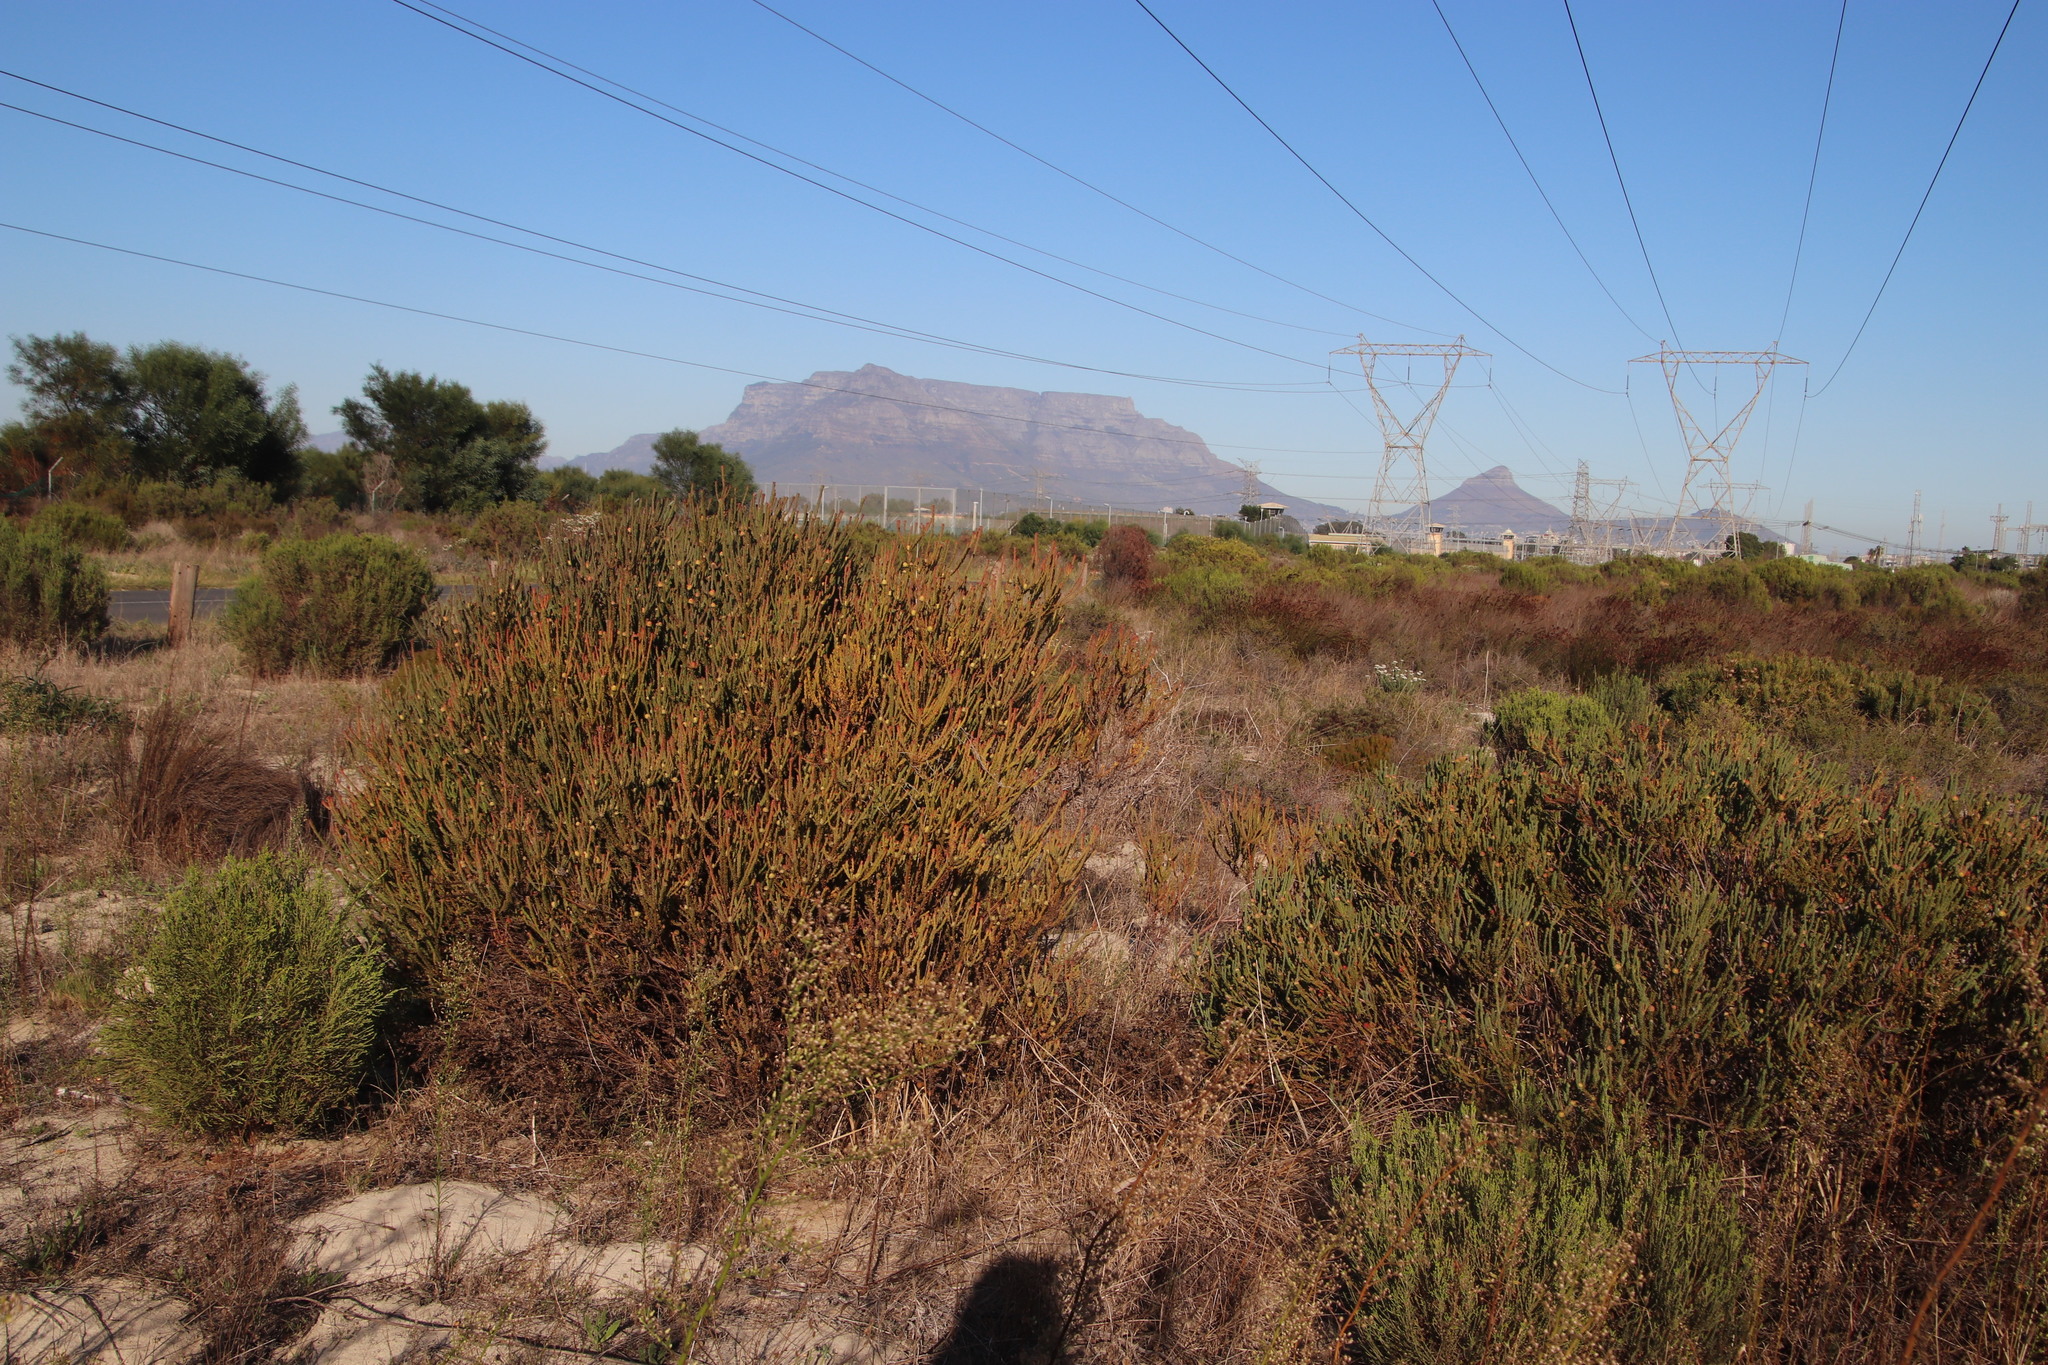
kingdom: Plantae
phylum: Tracheophyta
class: Magnoliopsida
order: Proteales
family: Proteaceae
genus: Leucadendron
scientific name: Leucadendron levisanus
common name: Cape flats conebush
